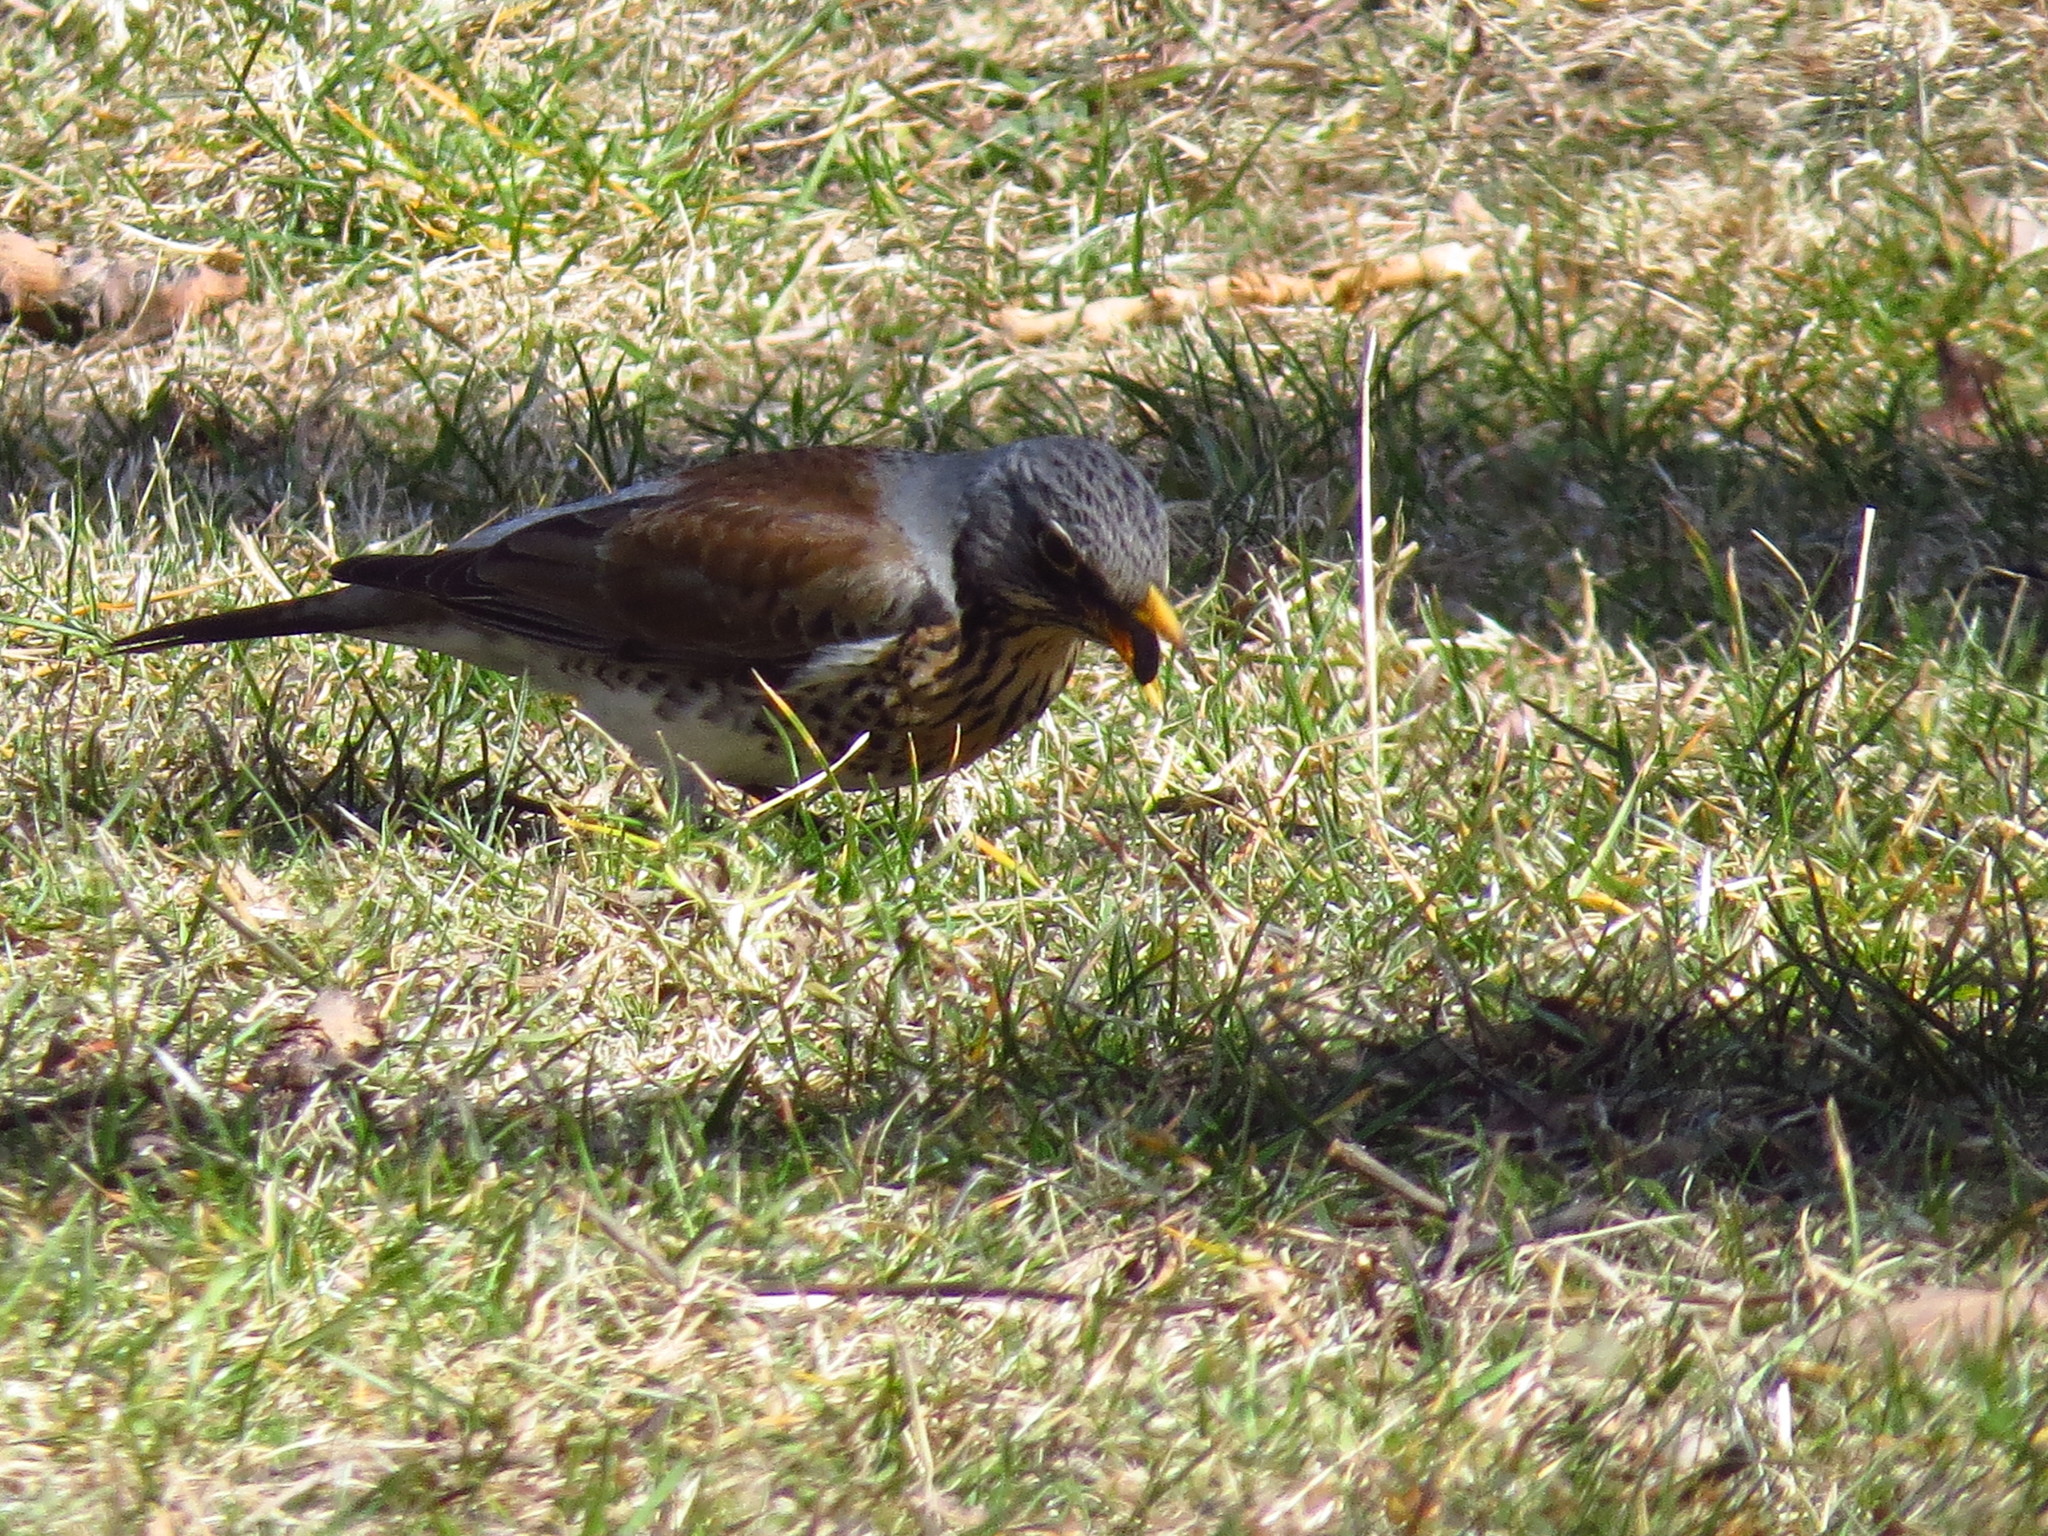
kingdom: Animalia
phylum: Chordata
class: Aves
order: Passeriformes
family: Turdidae
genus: Turdus
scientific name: Turdus pilaris
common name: Fieldfare
